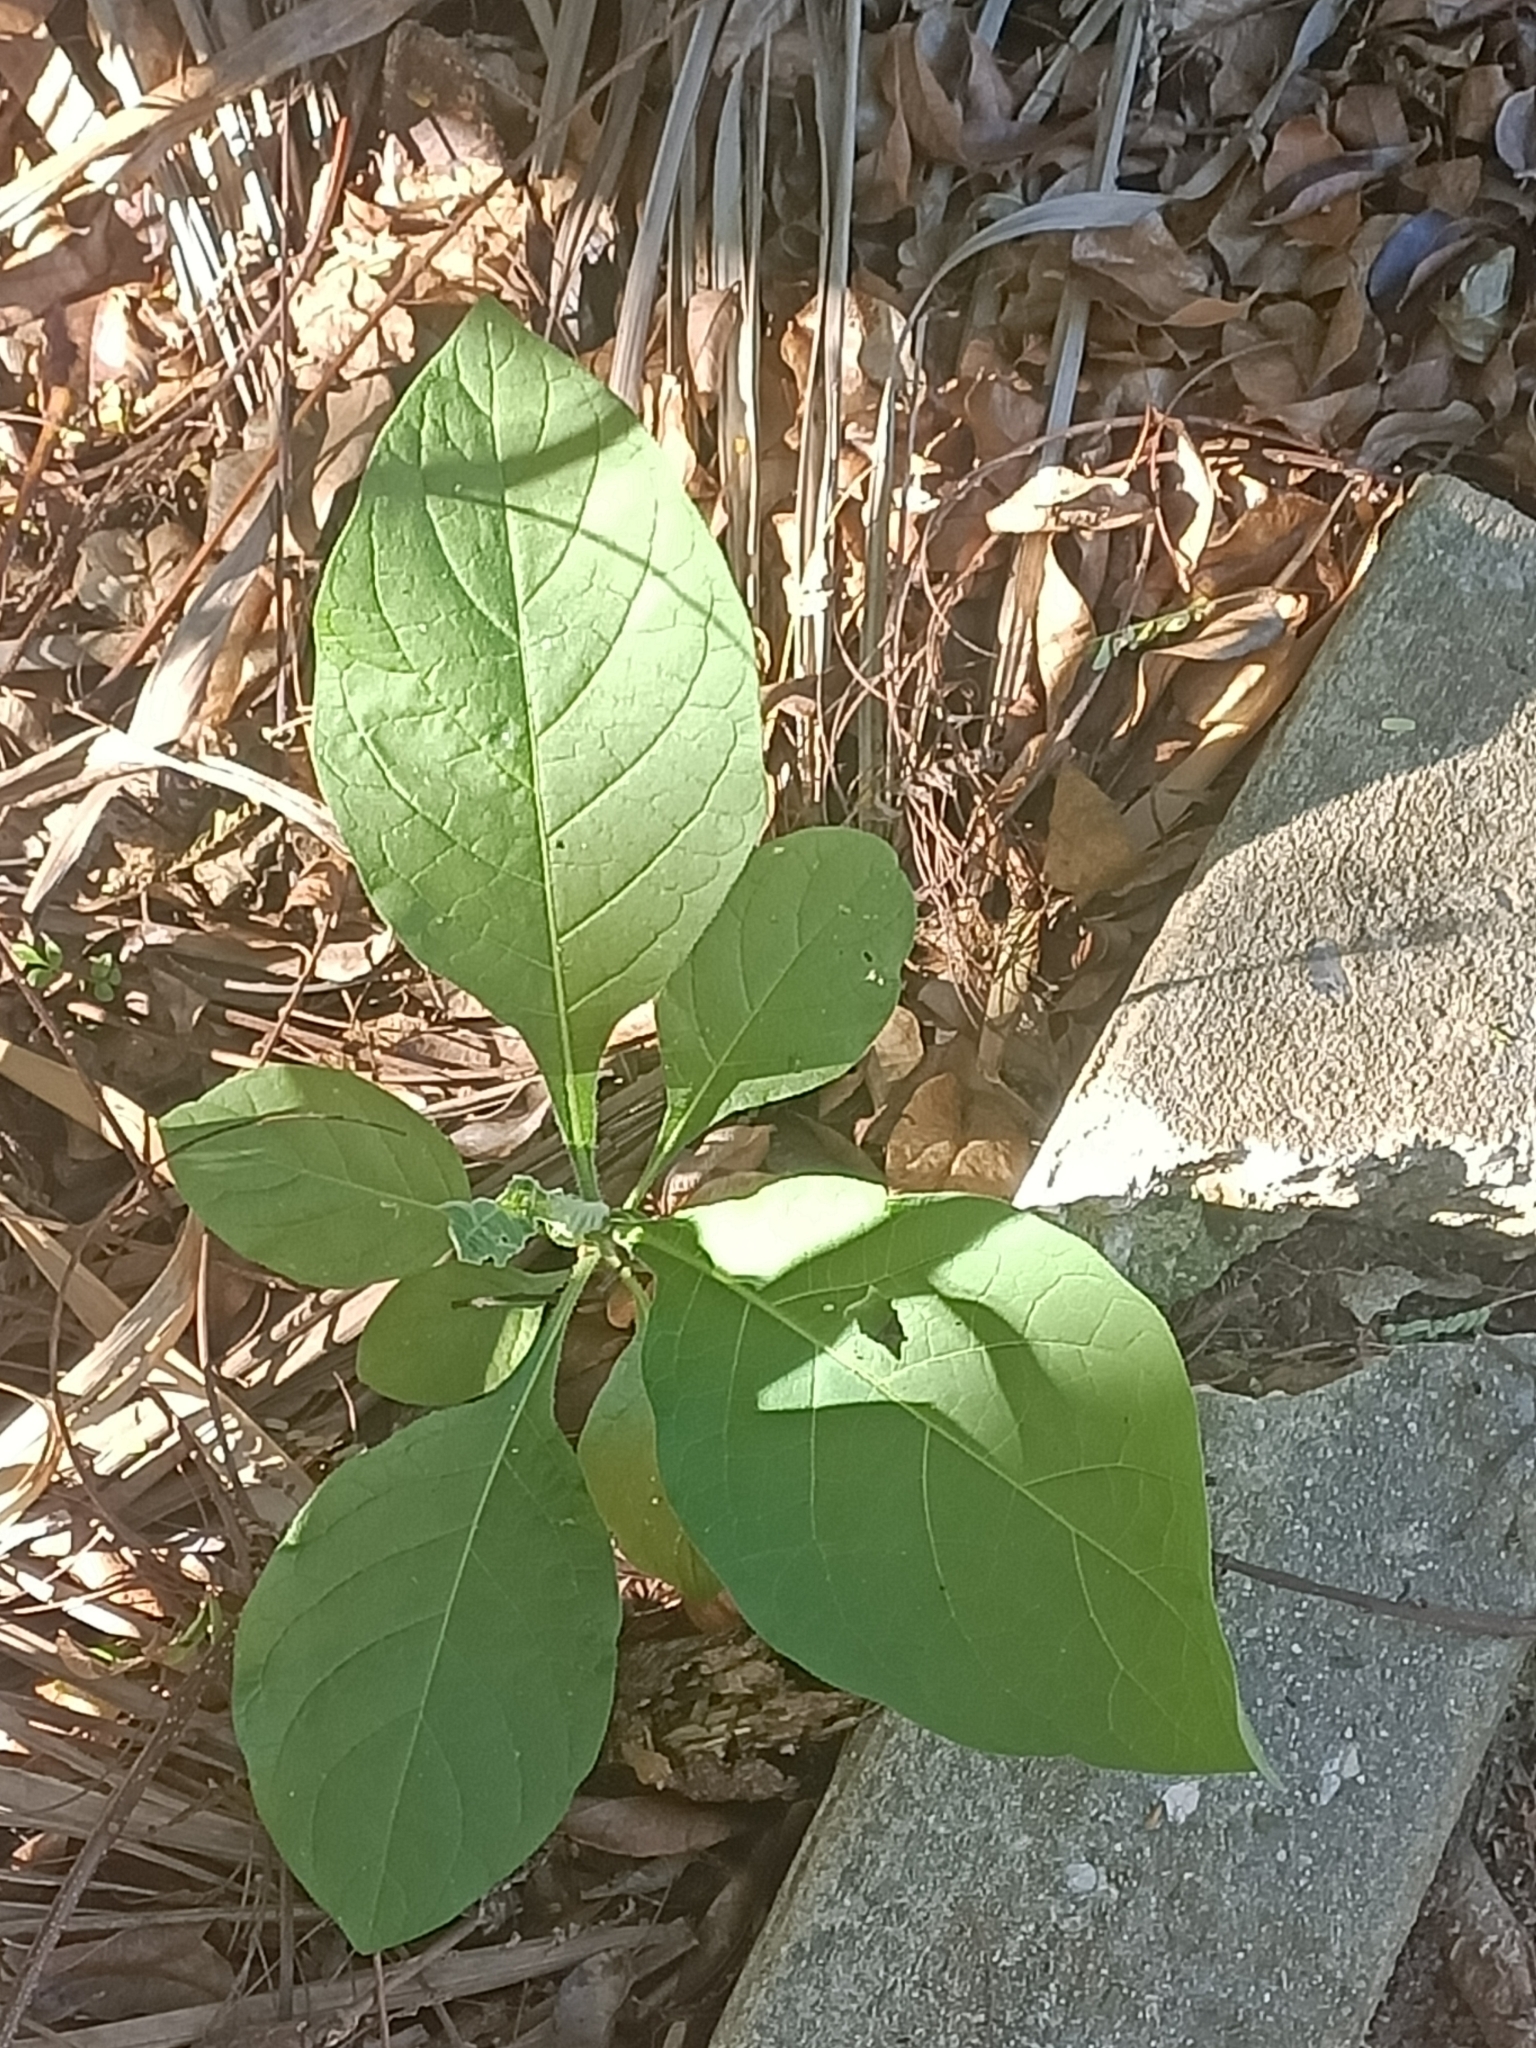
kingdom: Plantae
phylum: Tracheophyta
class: Magnoliopsida
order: Solanales
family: Solanaceae
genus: Solanum
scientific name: Solanum mauritianum
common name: Earleaf nightshade
